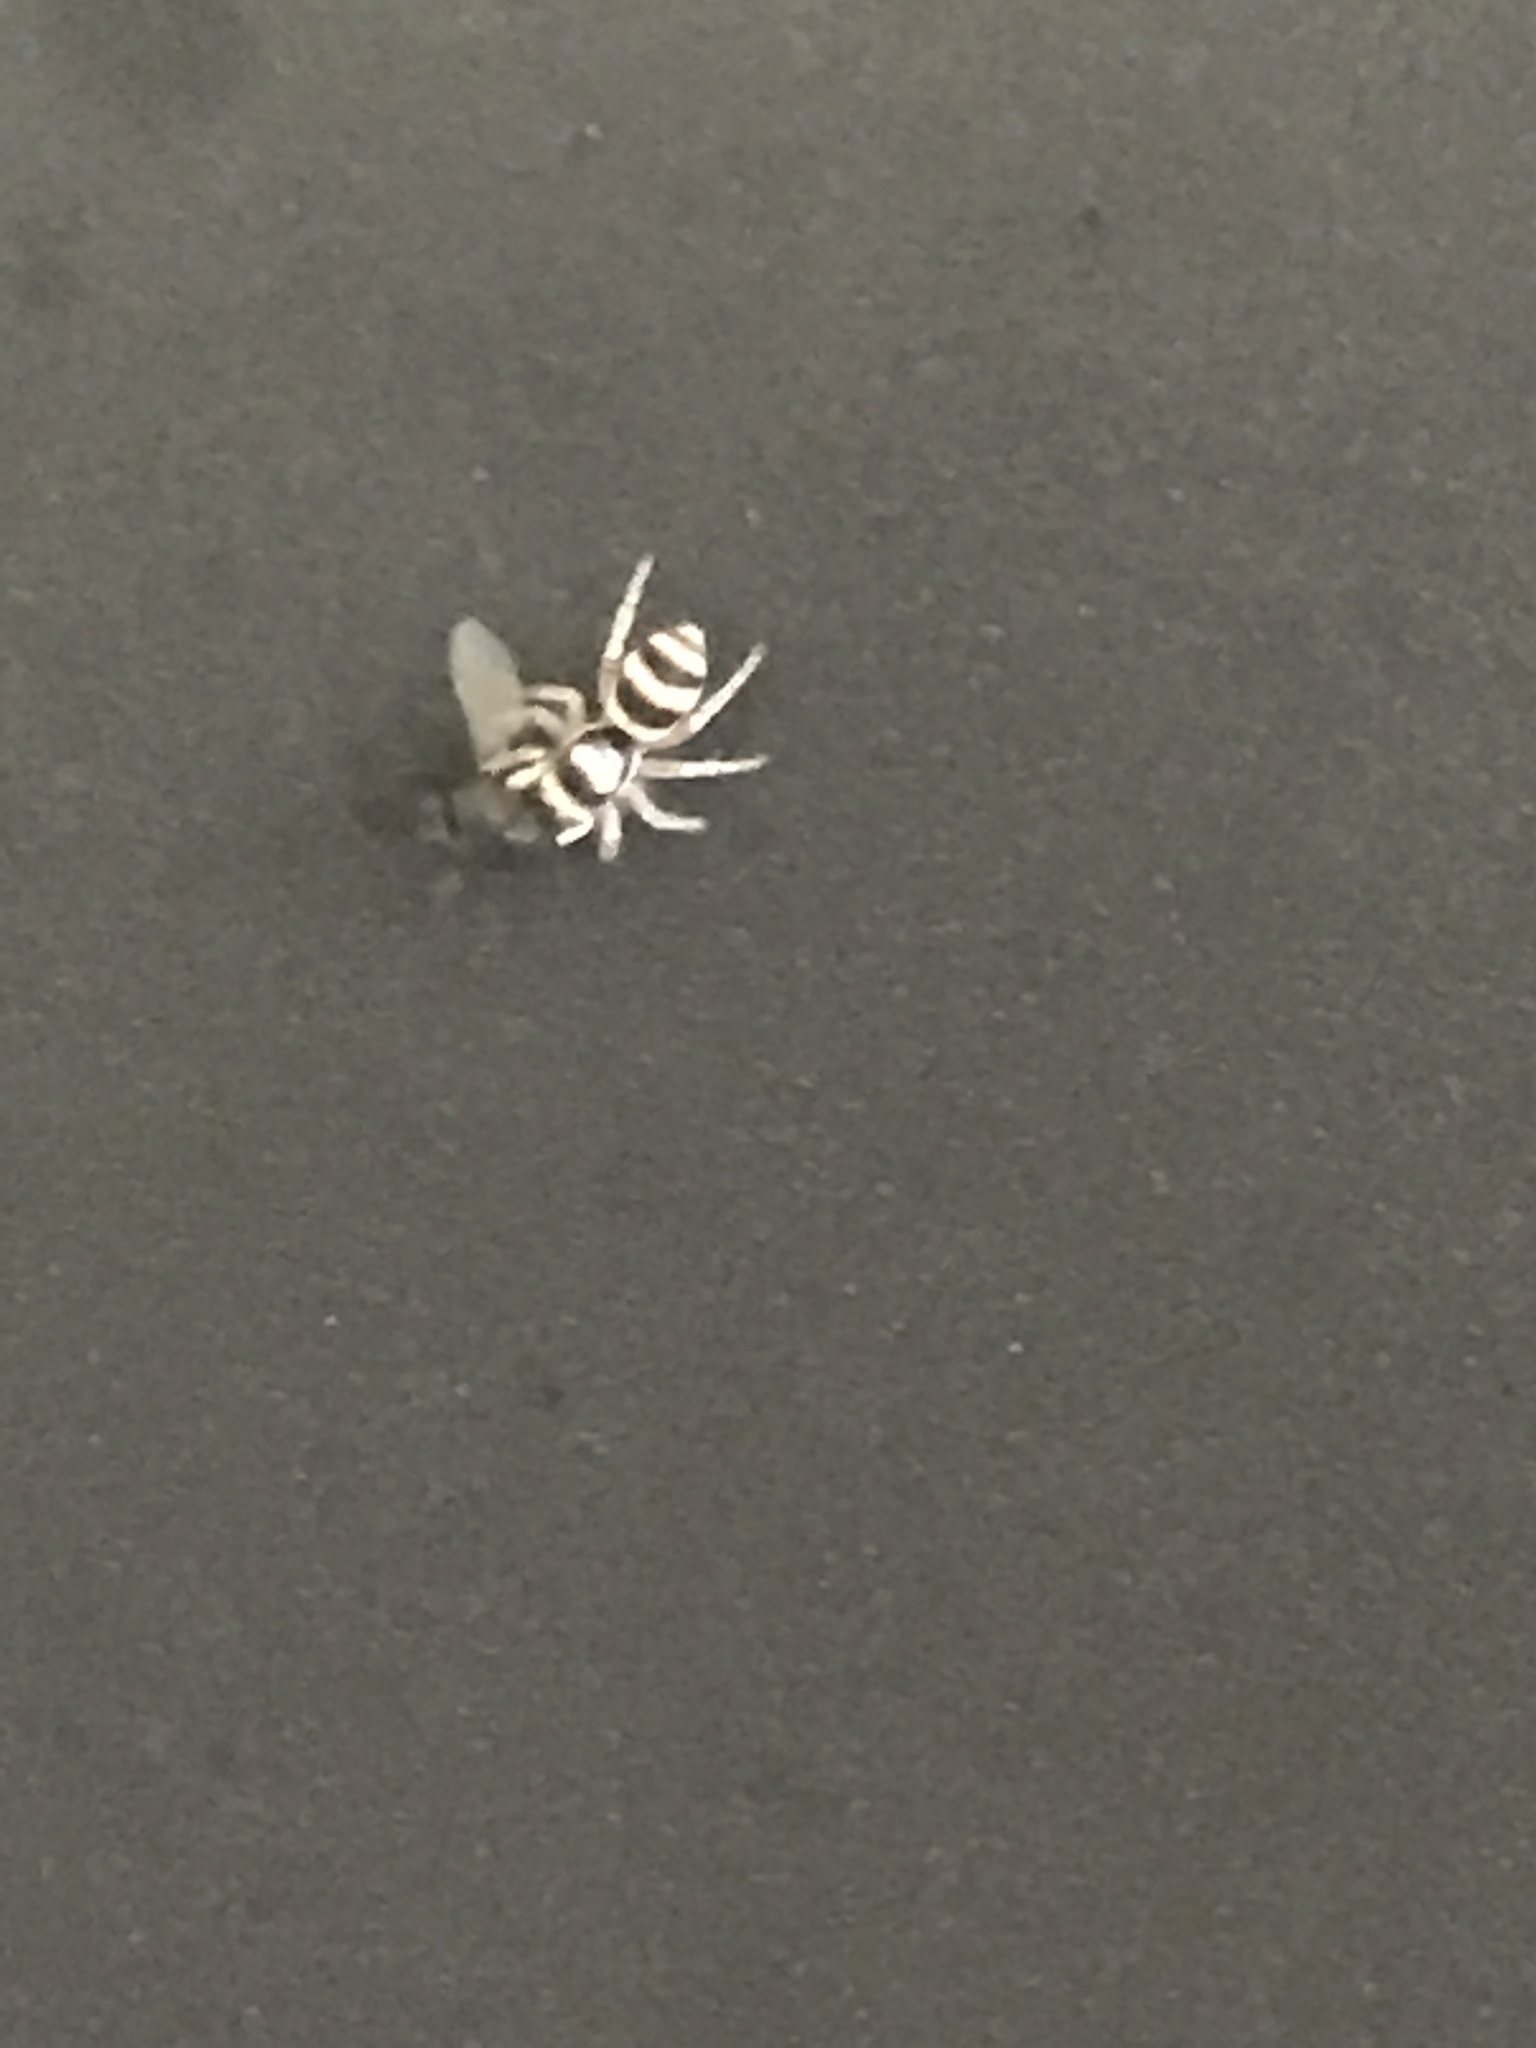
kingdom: Animalia
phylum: Arthropoda
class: Arachnida
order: Araneae
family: Salticidae
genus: Salticus
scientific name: Salticus austinensis
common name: Jumping spiders
